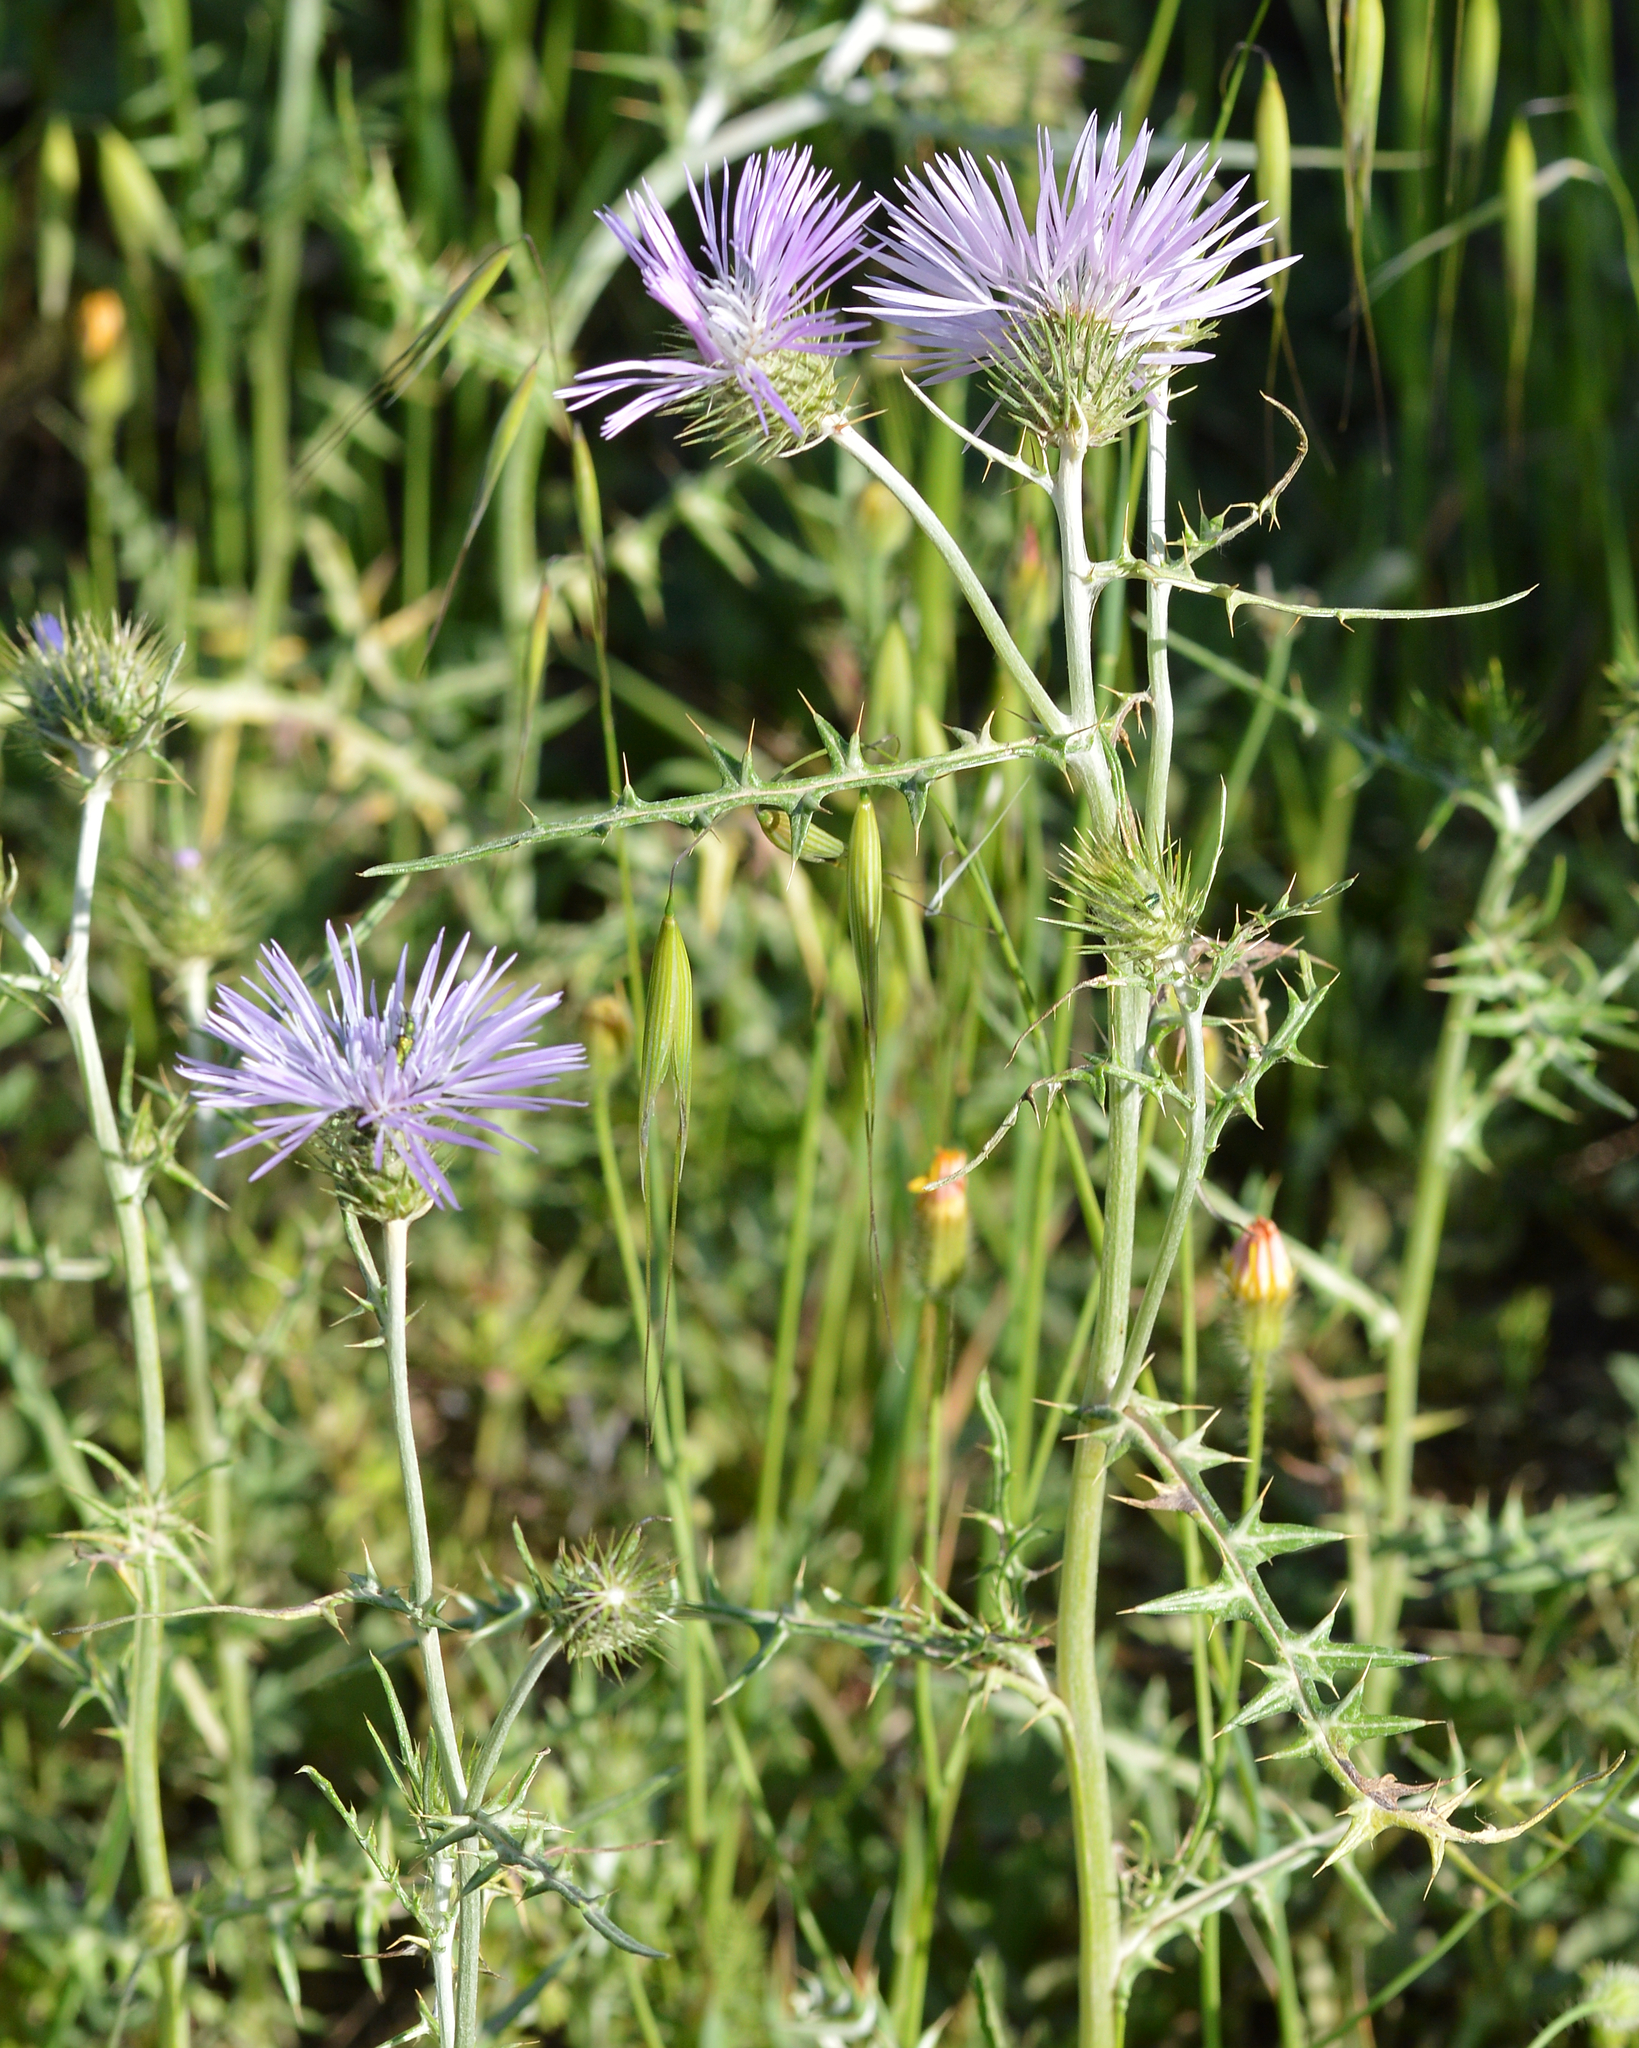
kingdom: Plantae
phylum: Tracheophyta
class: Magnoliopsida
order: Asterales
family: Asteraceae
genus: Galactites
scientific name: Galactites tomentosa
